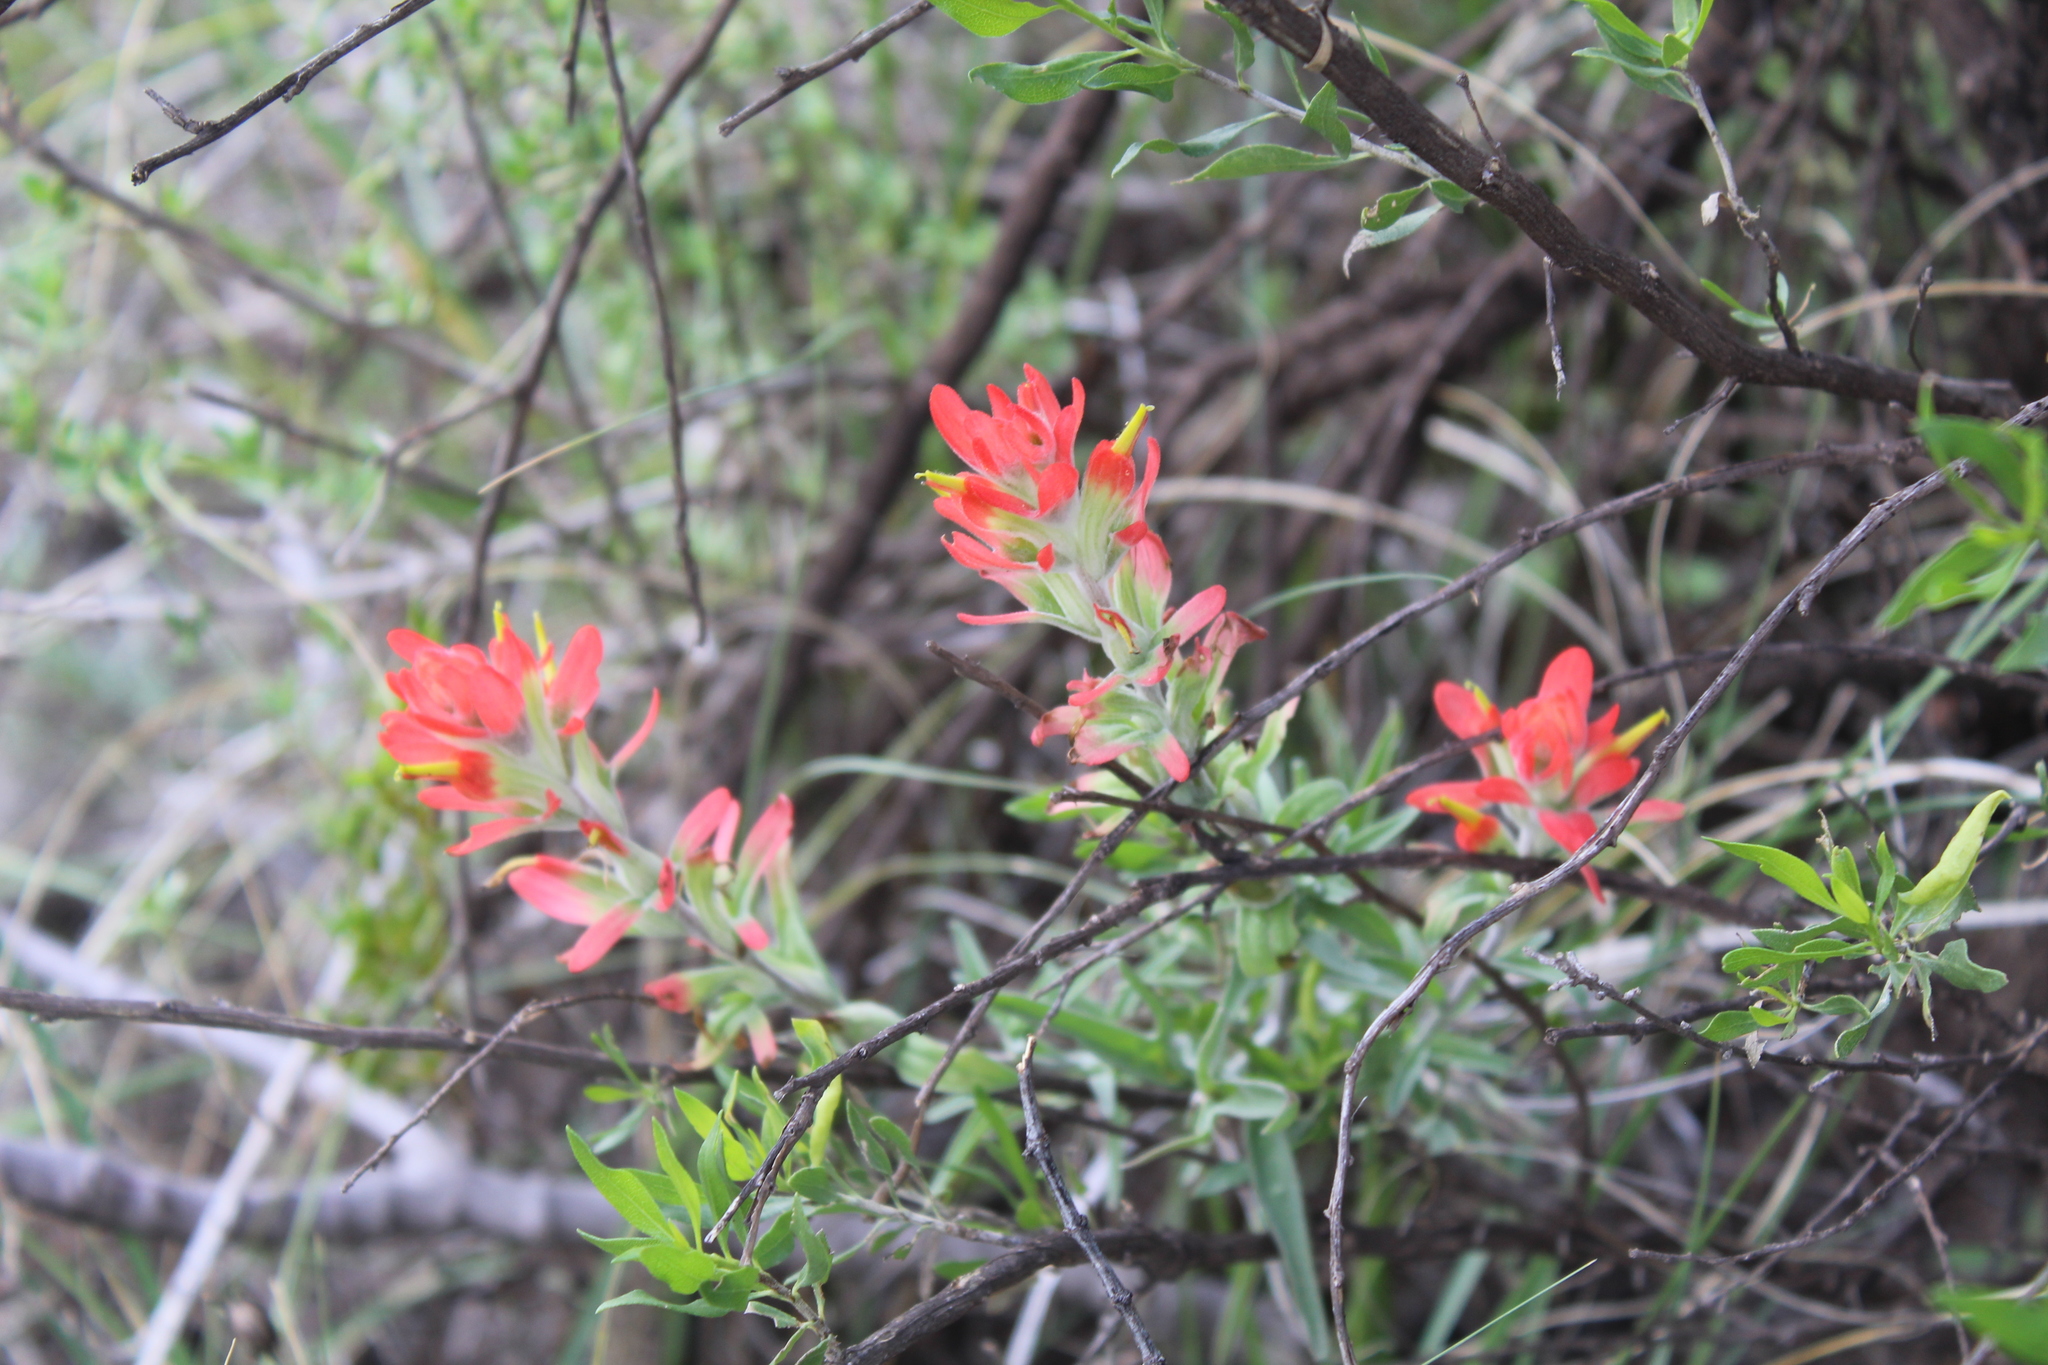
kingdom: Plantae
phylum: Tracheophyta
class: Magnoliopsida
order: Lamiales
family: Orobanchaceae
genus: Castilleja
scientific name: Castilleja scorzonerifolia
